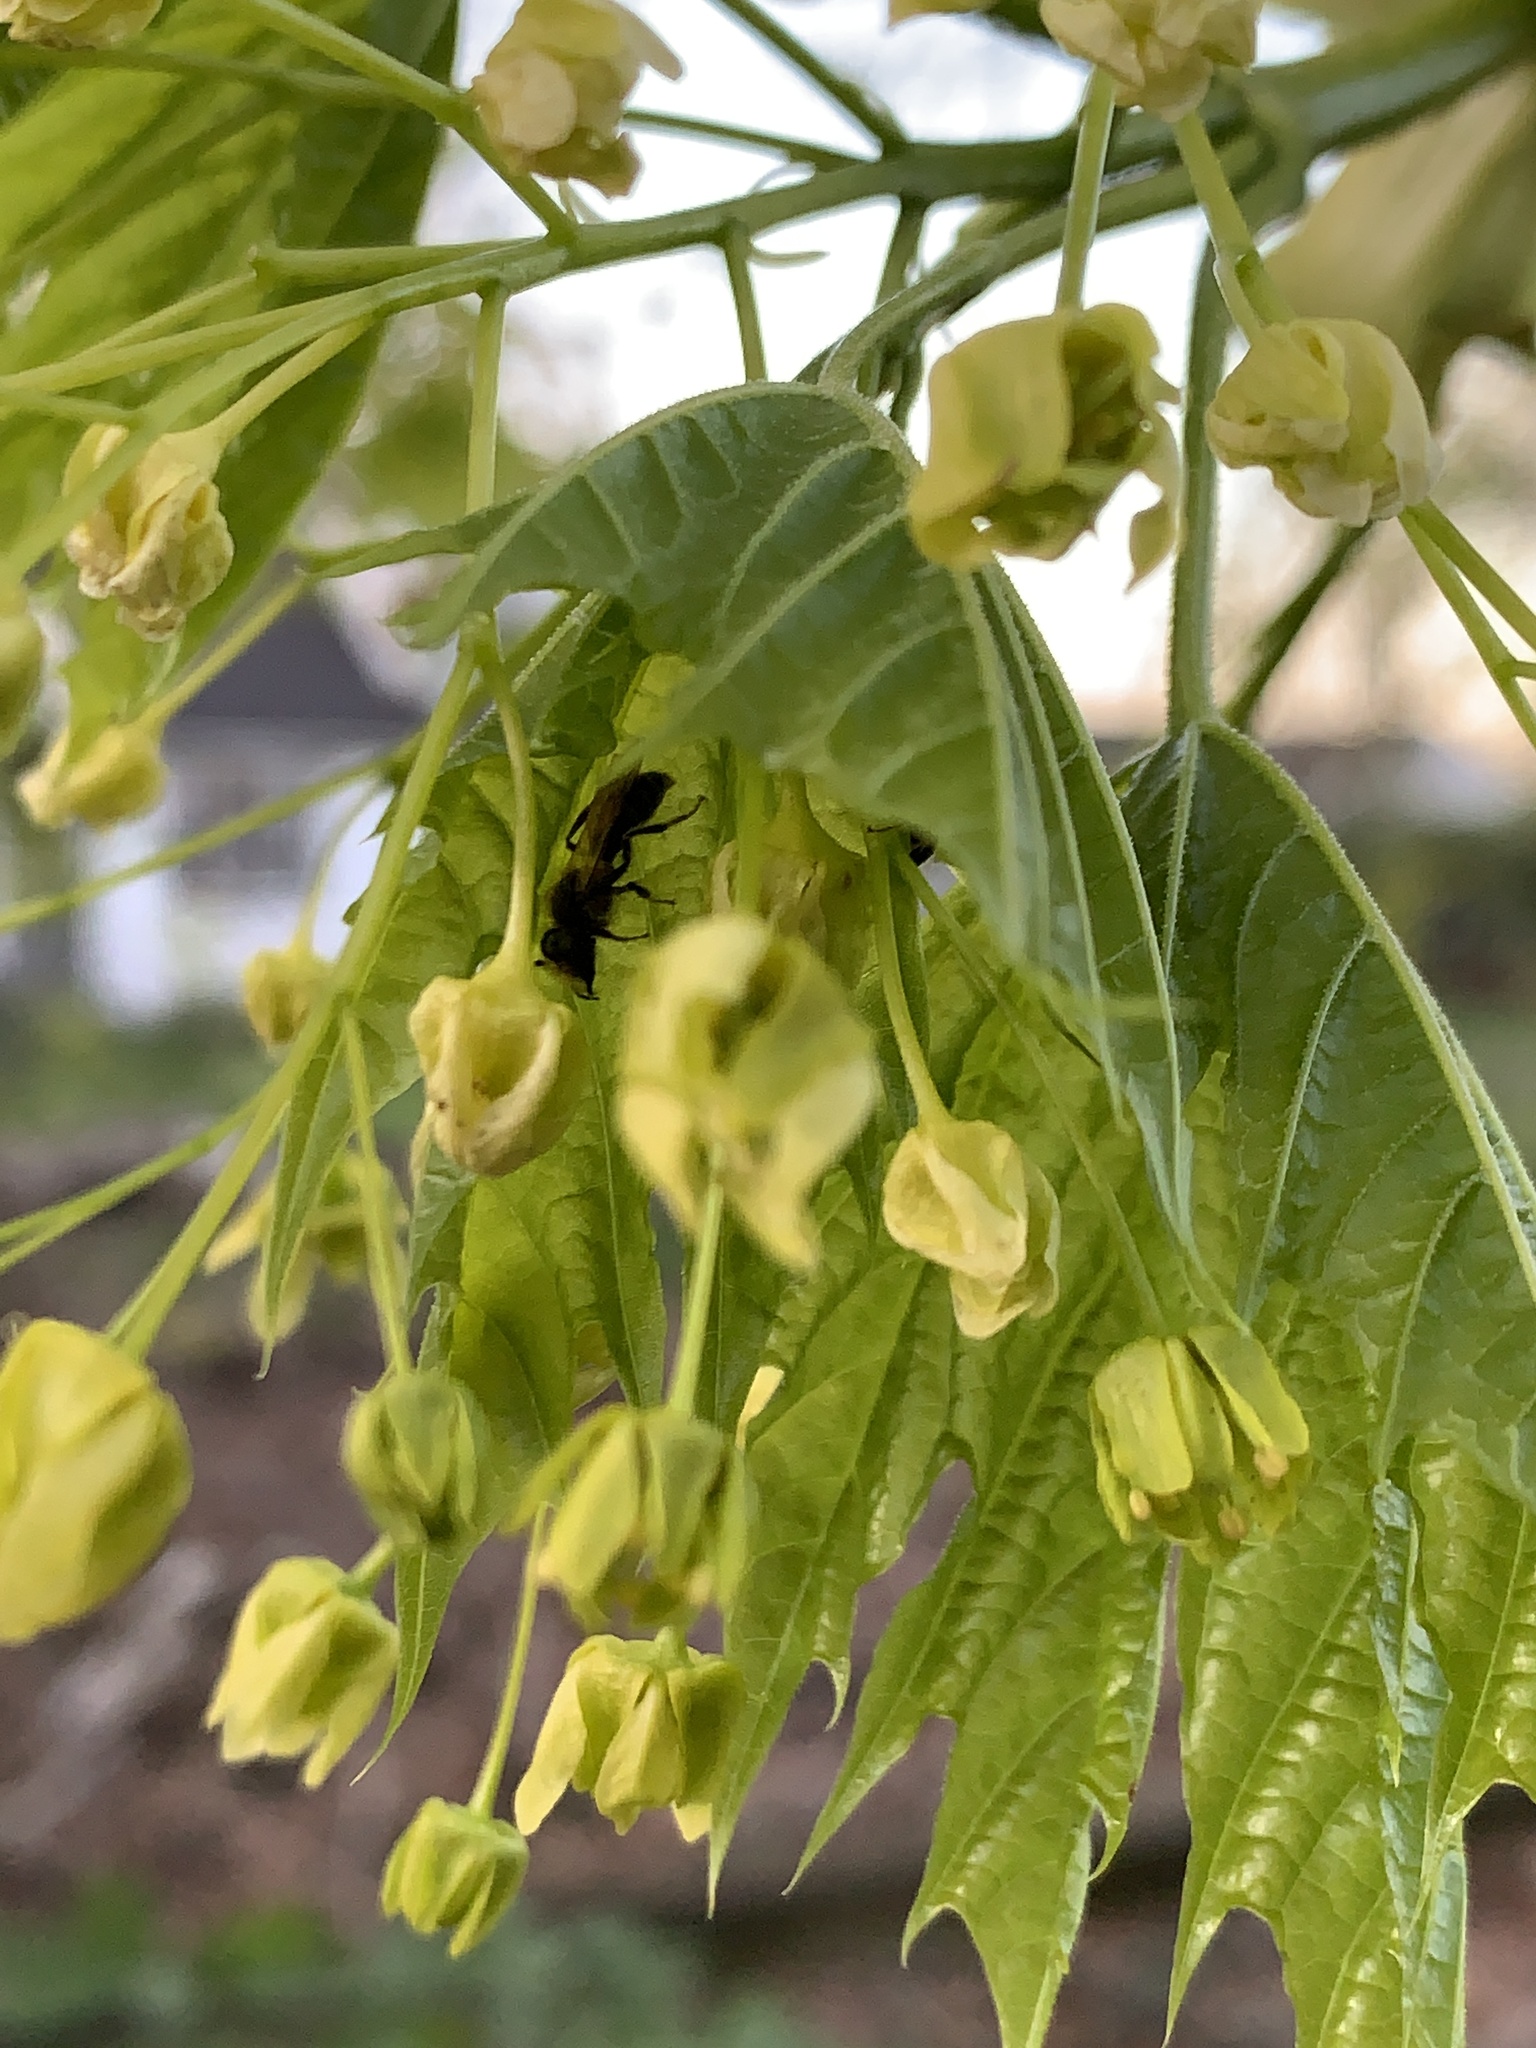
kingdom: Plantae
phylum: Tracheophyta
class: Magnoliopsida
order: Sapindales
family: Sapindaceae
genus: Acer
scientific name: Acer platanoides
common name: Norway maple
